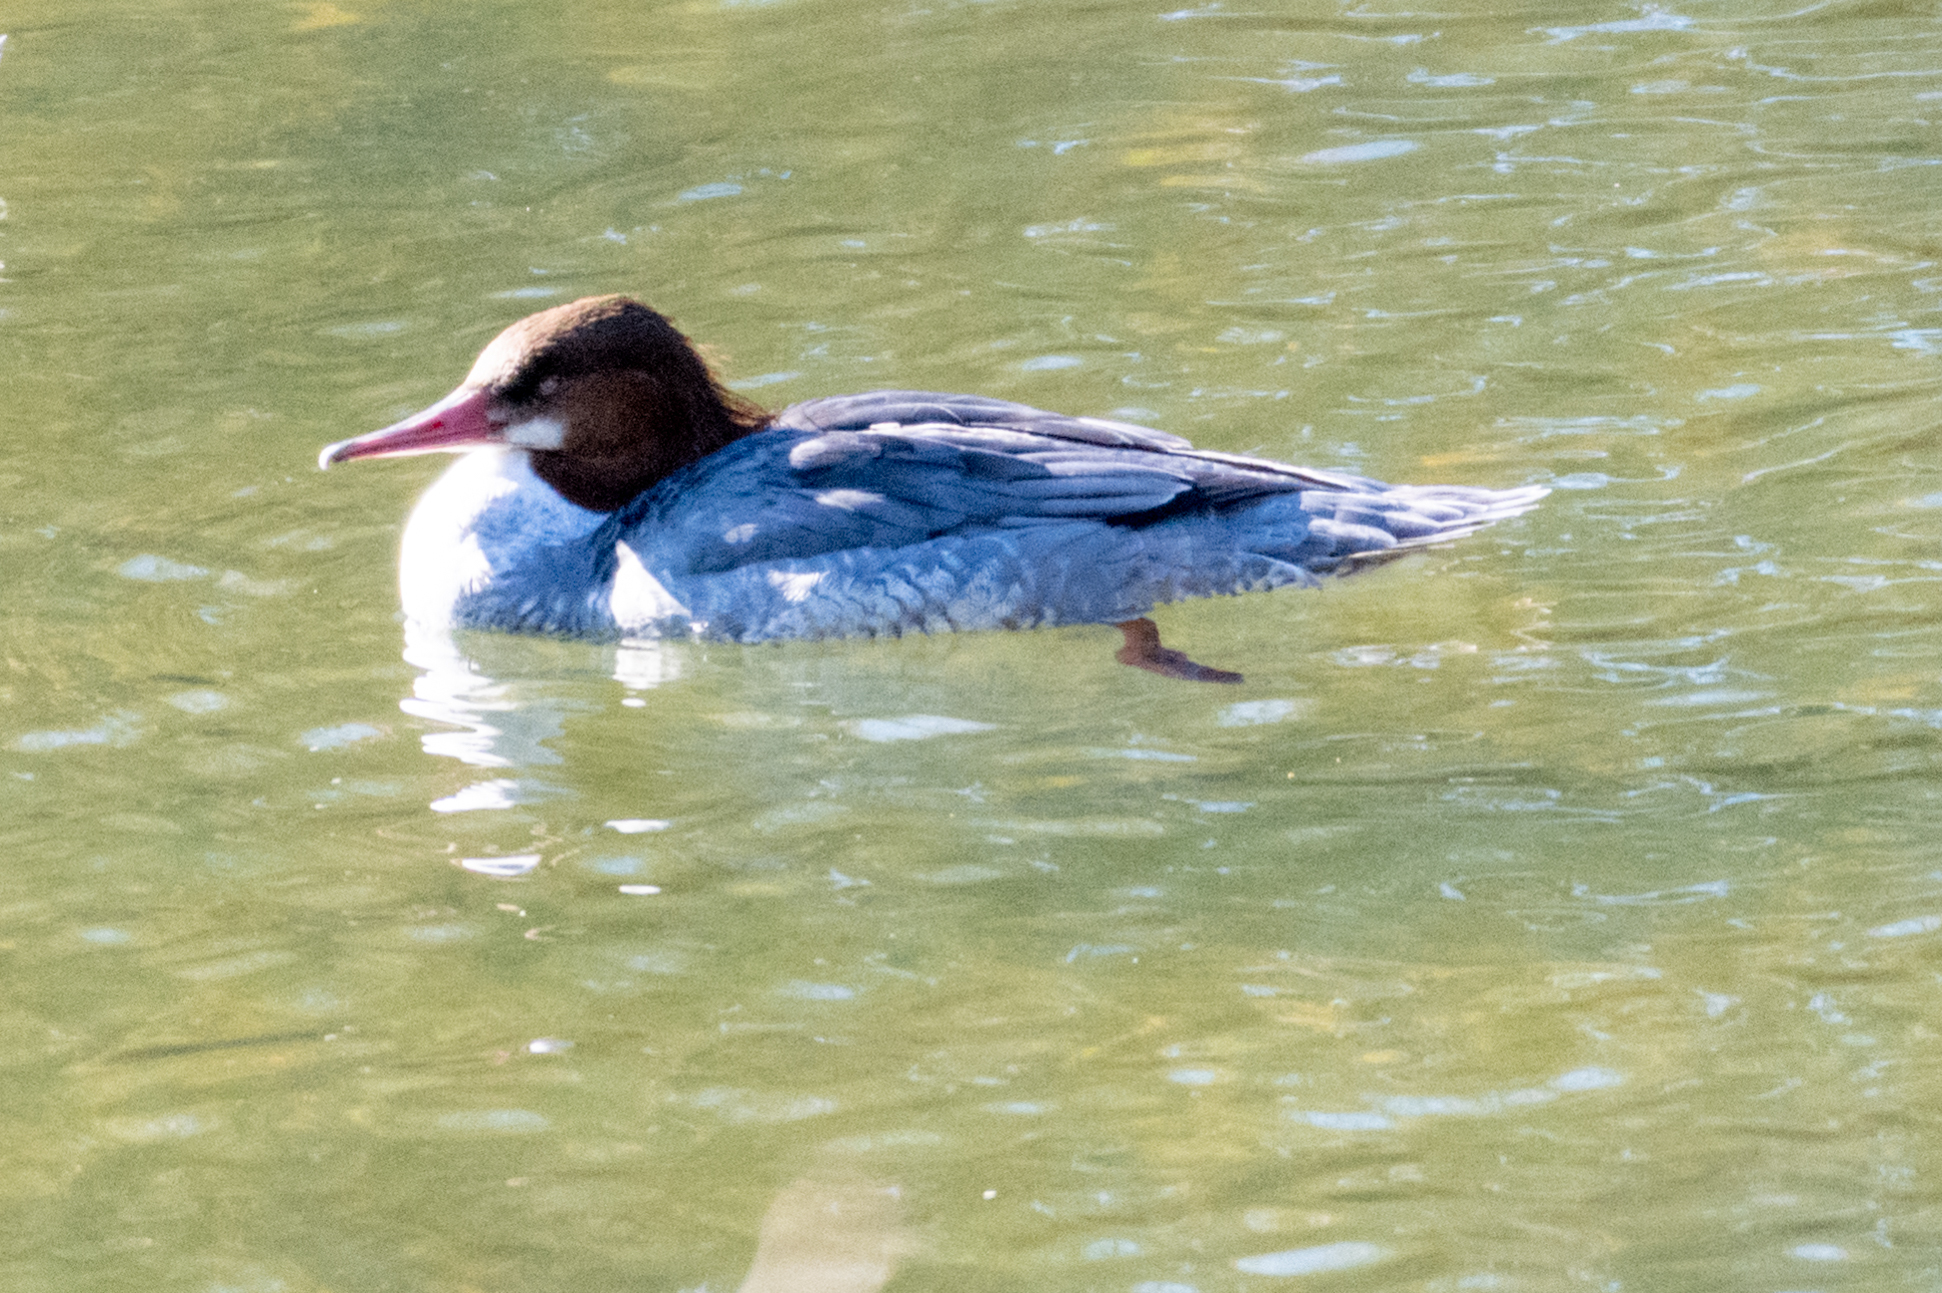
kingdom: Animalia
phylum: Chordata
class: Aves
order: Anseriformes
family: Anatidae
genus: Mergus
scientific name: Mergus merganser
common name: Common merganser
